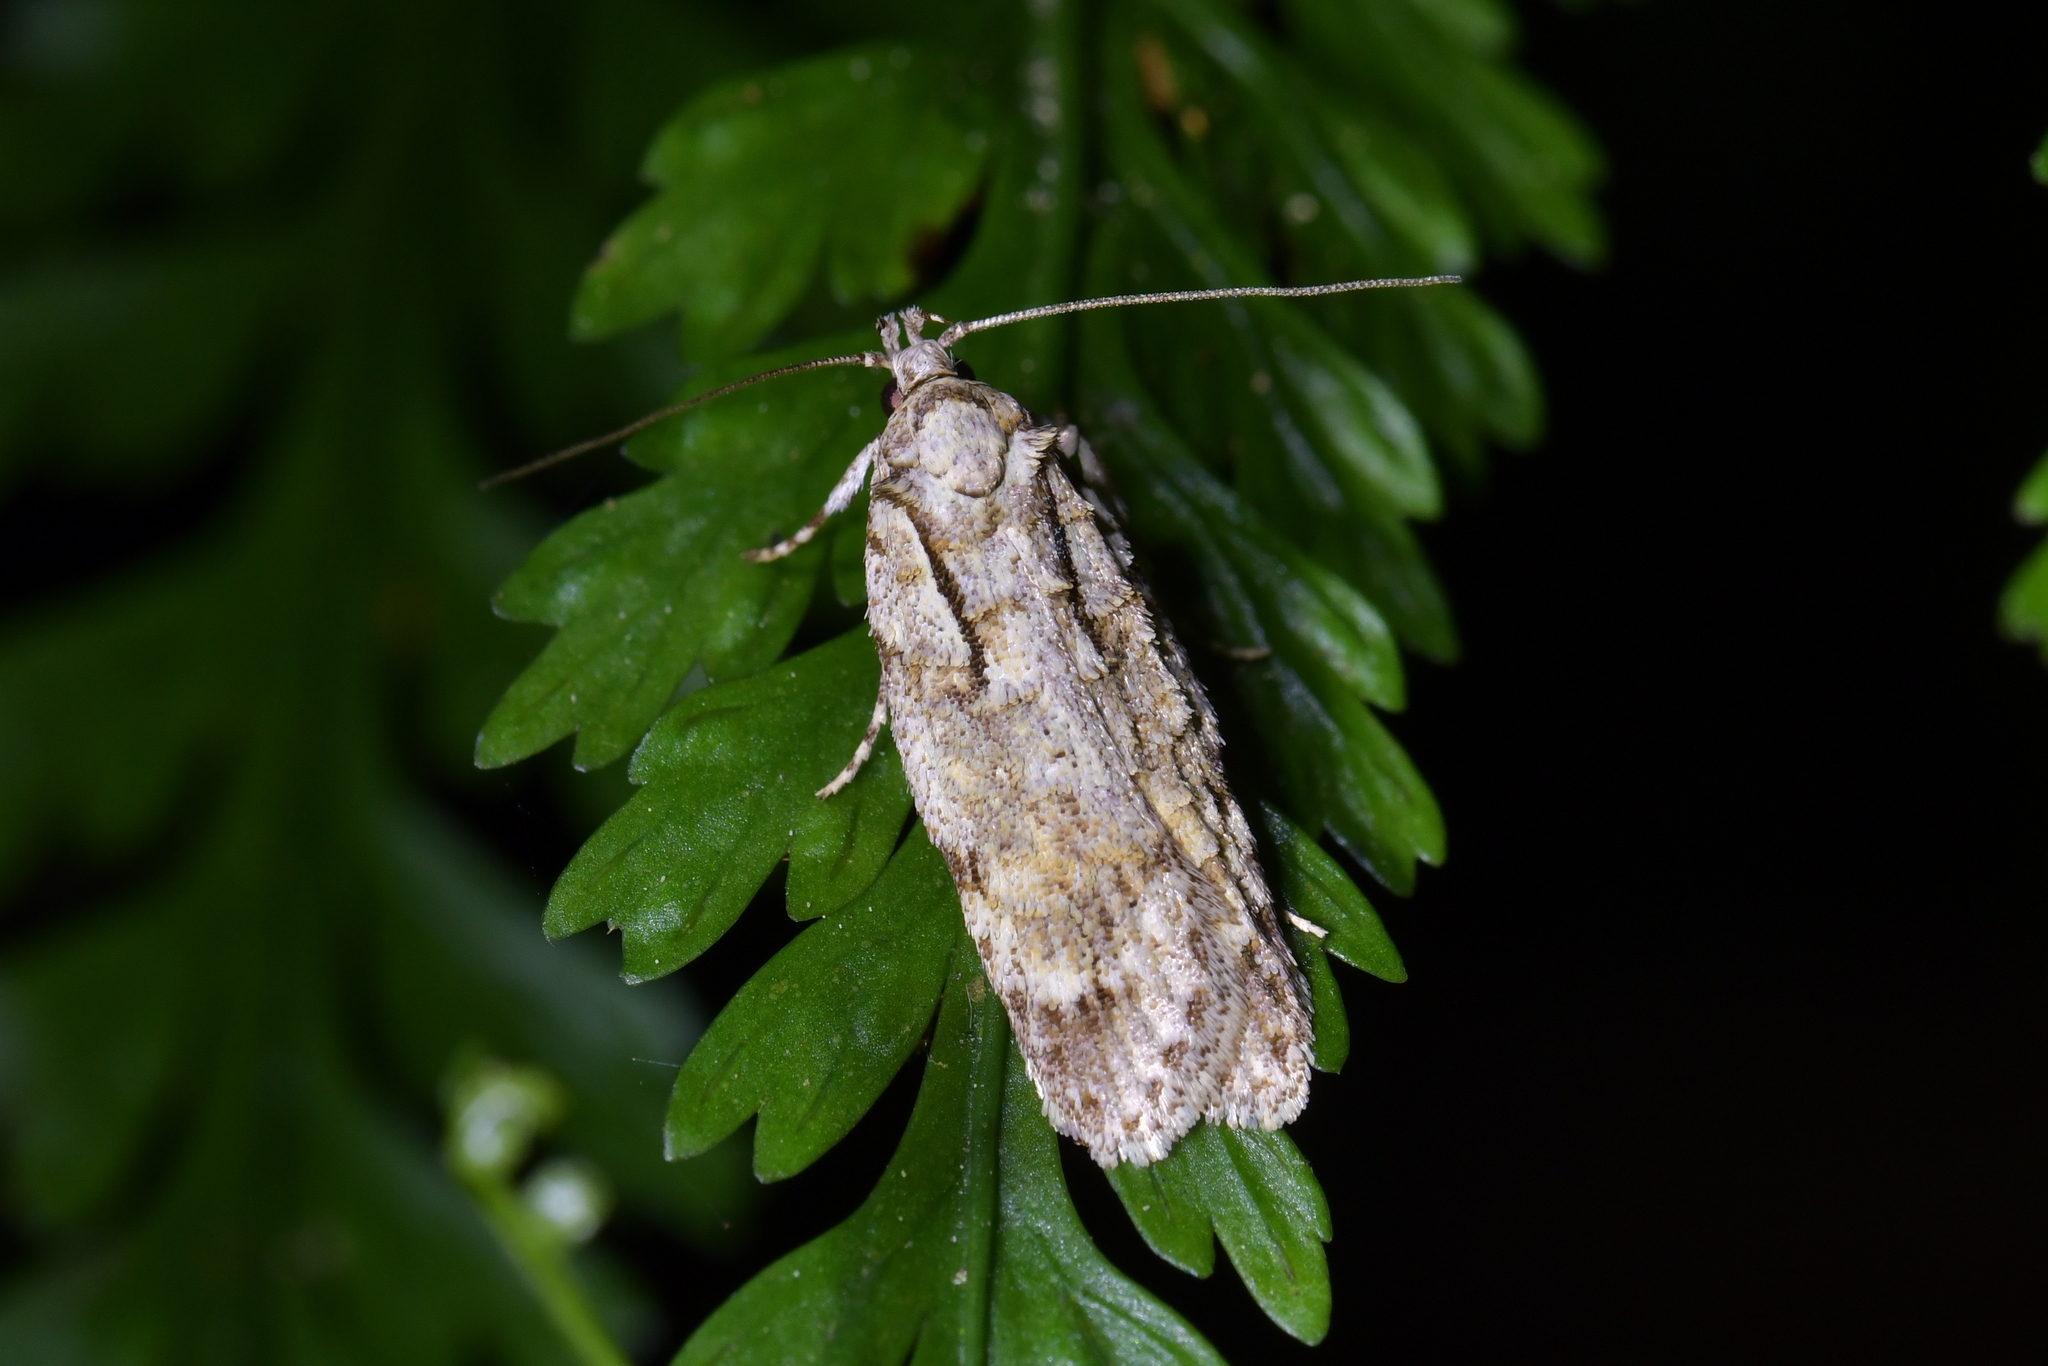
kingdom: Animalia
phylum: Arthropoda
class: Insecta
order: Lepidoptera
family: Oecophoridae
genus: Izatha
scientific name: Izatha attactella
